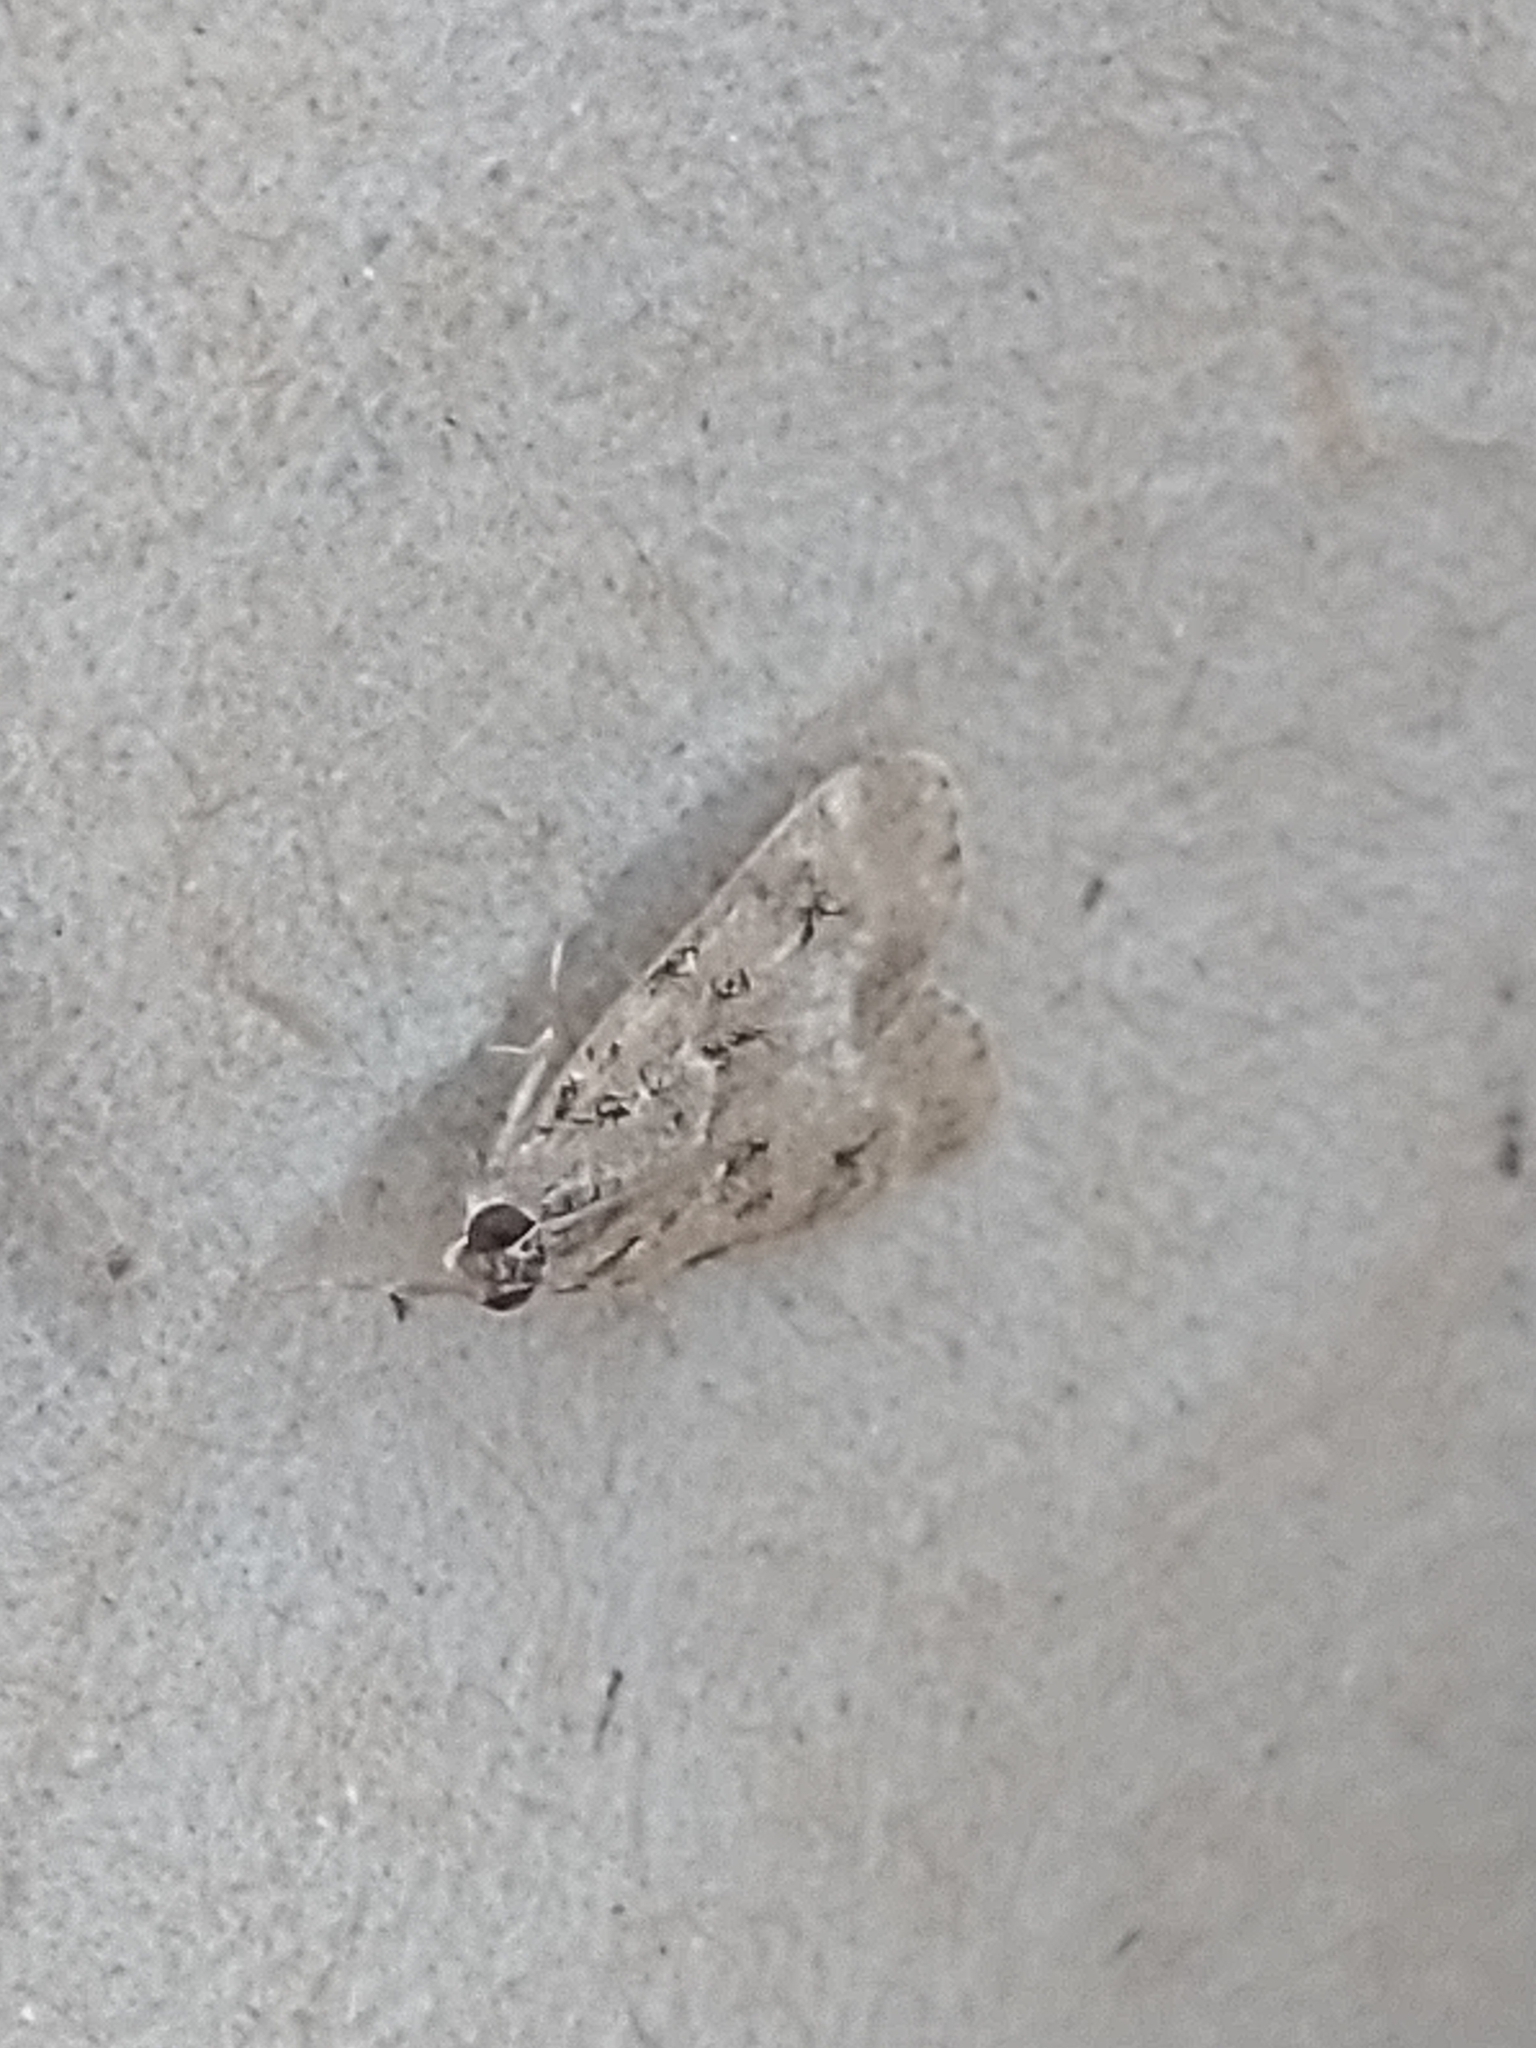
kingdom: Animalia
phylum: Arthropoda
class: Insecta
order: Lepidoptera
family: Crambidae
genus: Eudonia
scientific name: Eudonia mercurella
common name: Small grey
